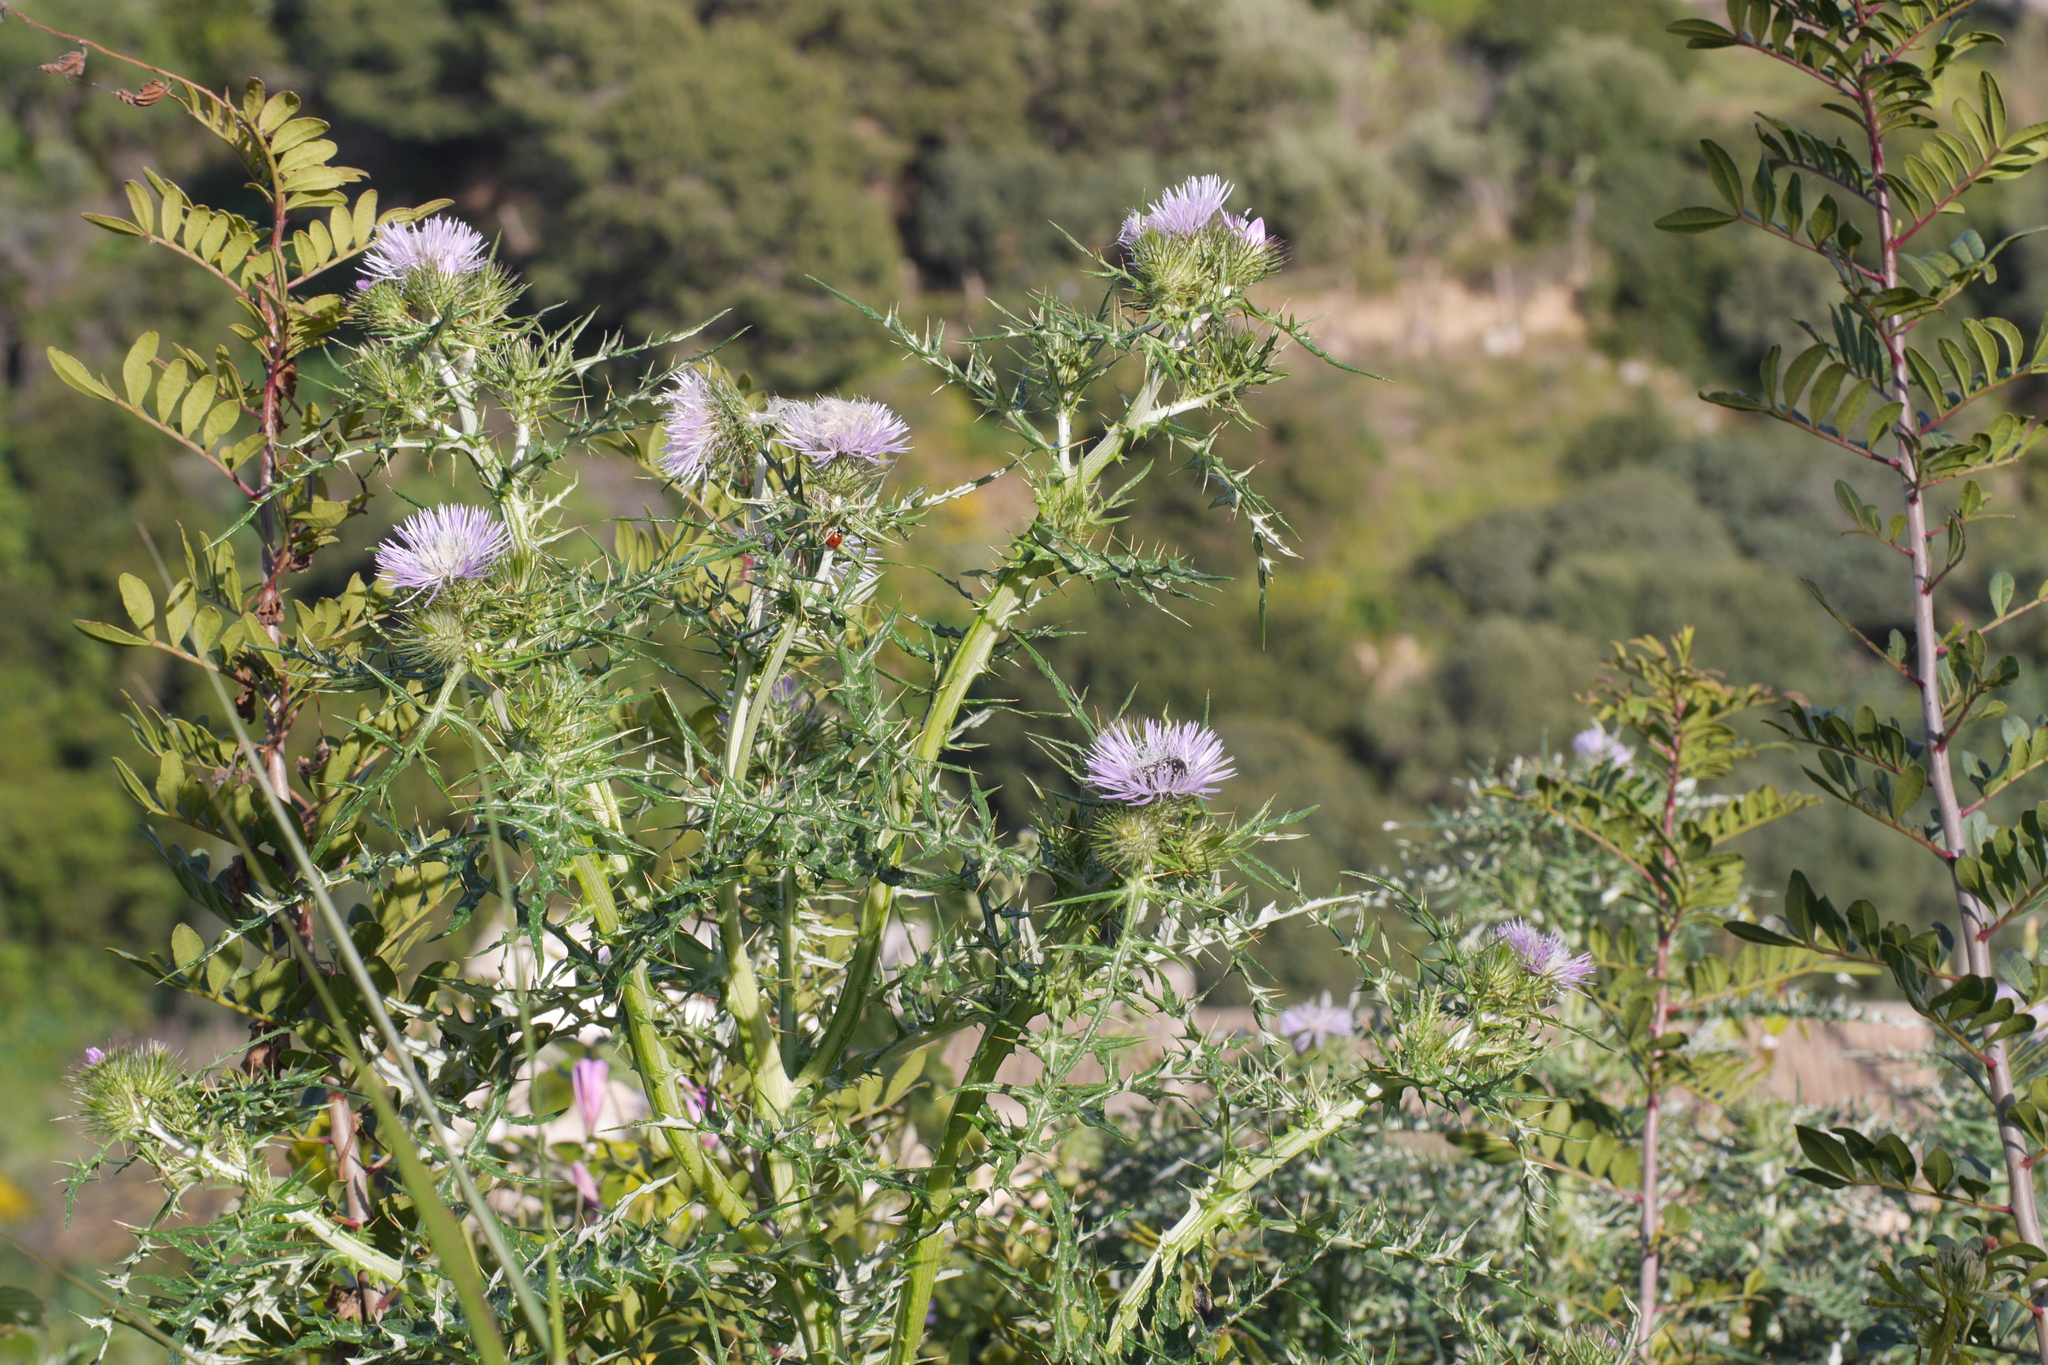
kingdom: Plantae
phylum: Tracheophyta
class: Magnoliopsida
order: Asterales
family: Asteraceae
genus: Galactites
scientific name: Galactites tomentosa
